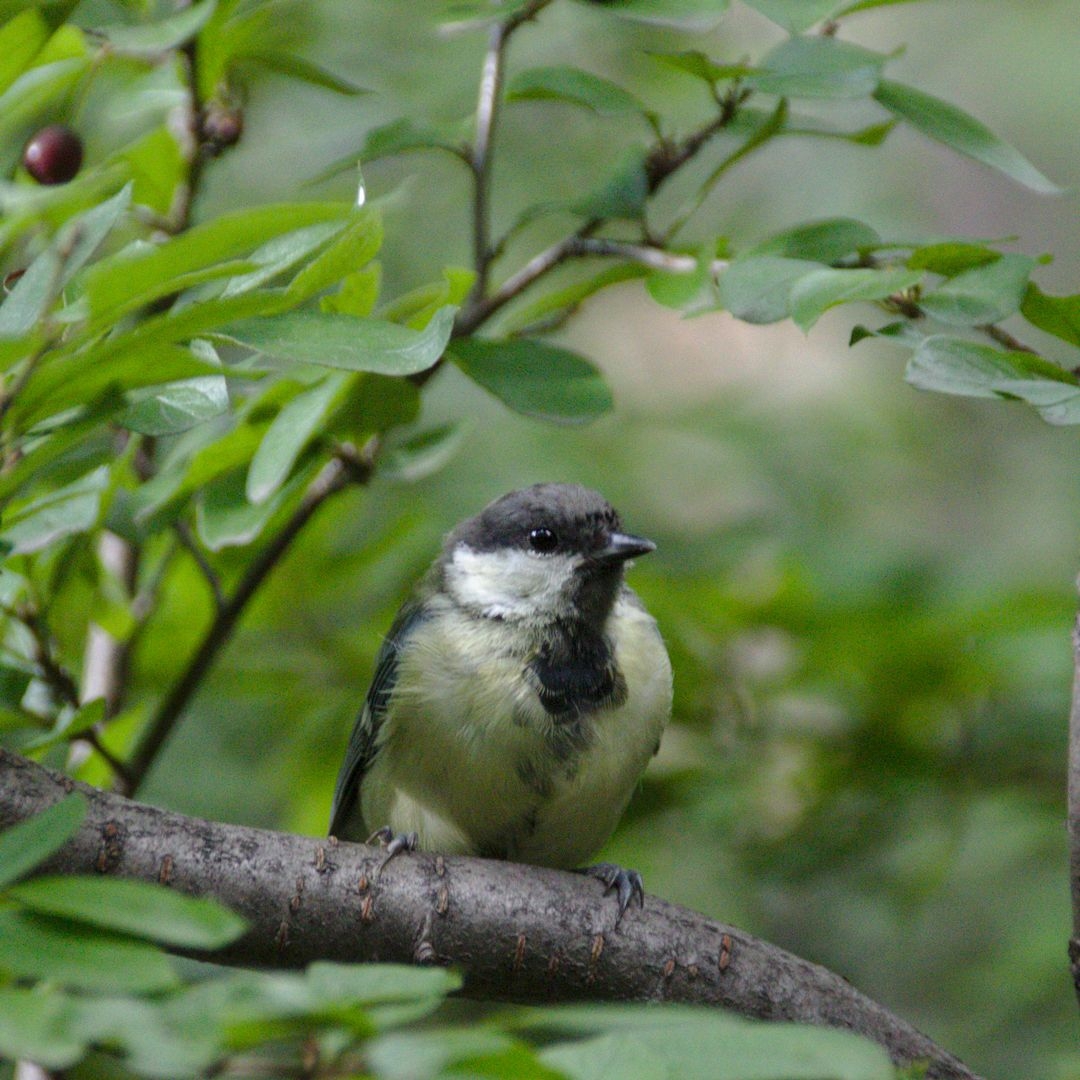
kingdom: Animalia
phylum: Chordata
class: Aves
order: Passeriformes
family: Paridae
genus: Parus
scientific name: Parus major
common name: Great tit
